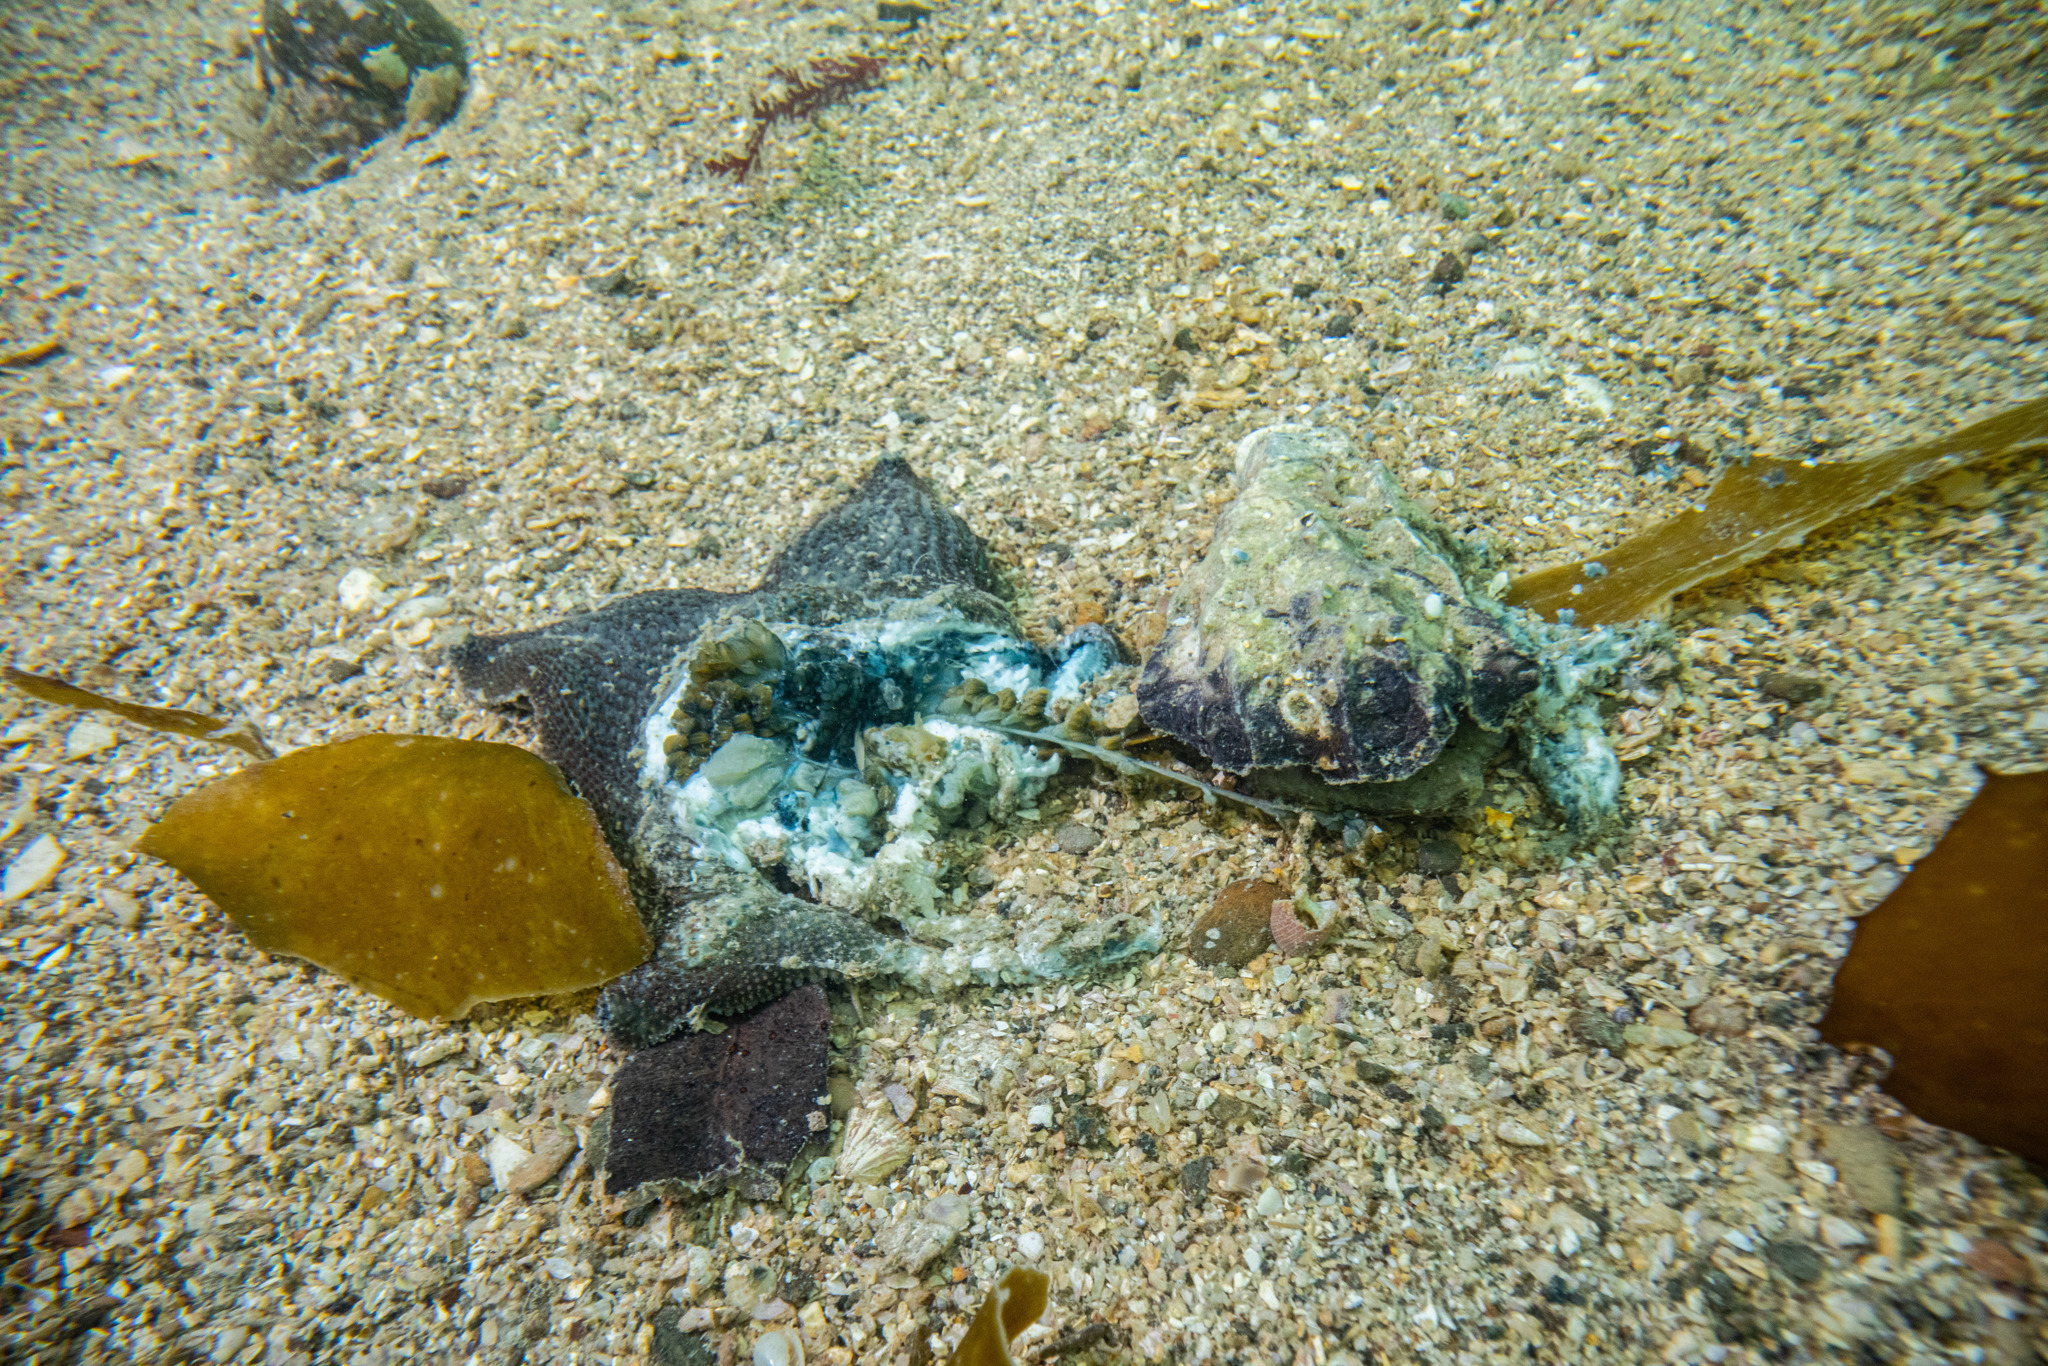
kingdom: Animalia
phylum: Echinodermata
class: Asteroidea
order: Valvatida
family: Asterinidae
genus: Patiriella
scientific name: Patiriella regularis
